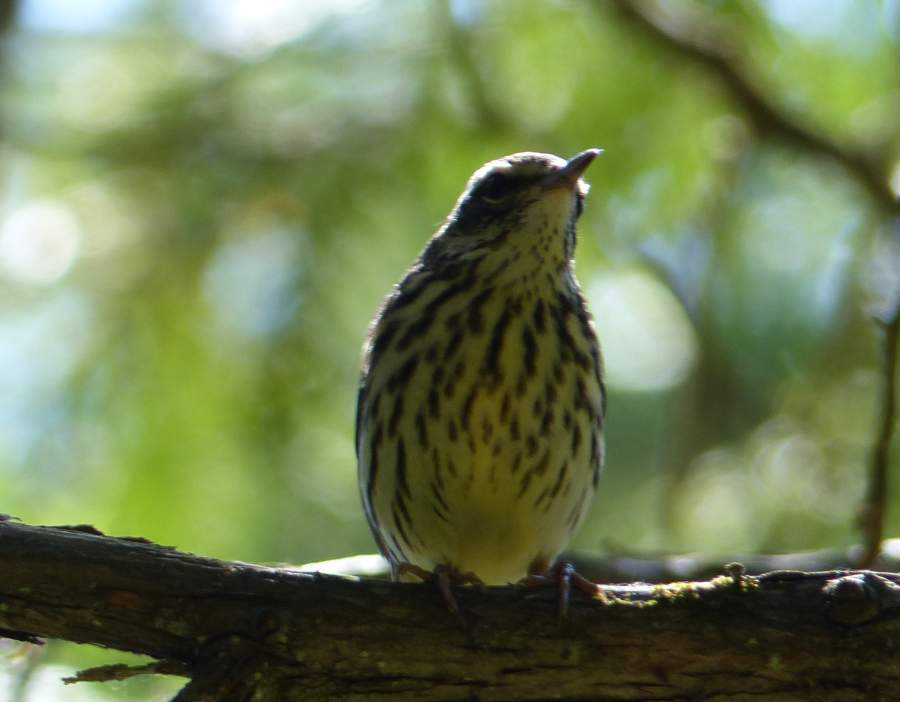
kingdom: Animalia
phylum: Chordata
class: Aves
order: Passeriformes
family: Parulidae
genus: Parkesia
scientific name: Parkesia noveboracensis
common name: Northern waterthrush
